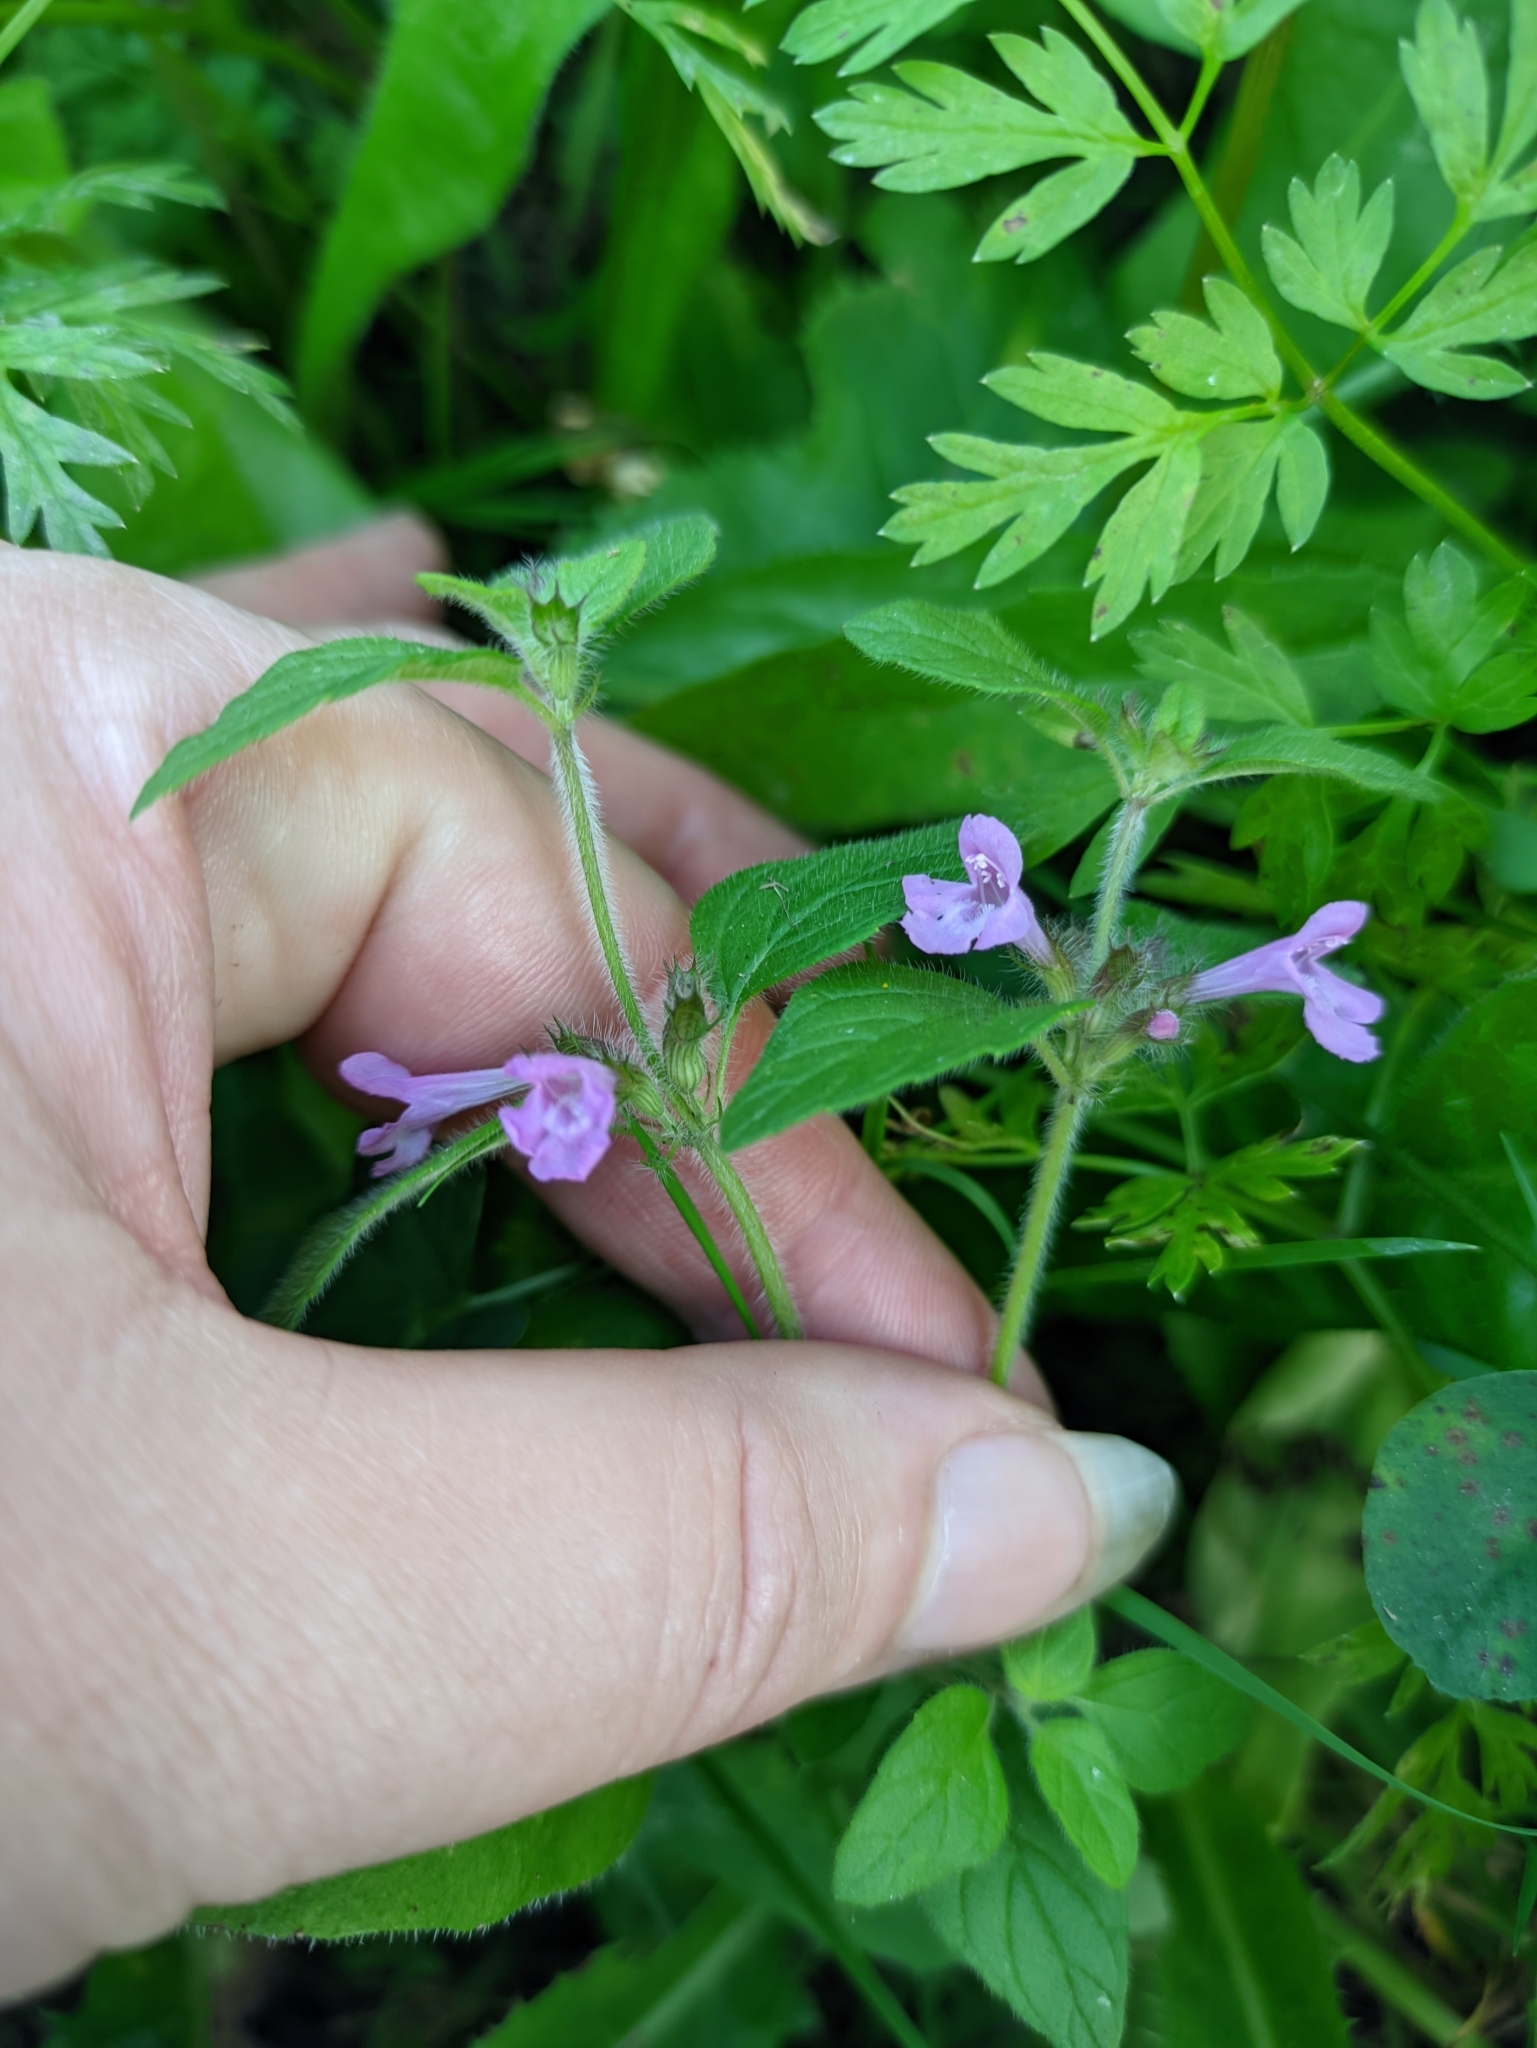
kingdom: Plantae
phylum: Tracheophyta
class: Magnoliopsida
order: Lamiales
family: Lamiaceae
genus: Clinopodium
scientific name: Clinopodium vulgare
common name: Wild basil
